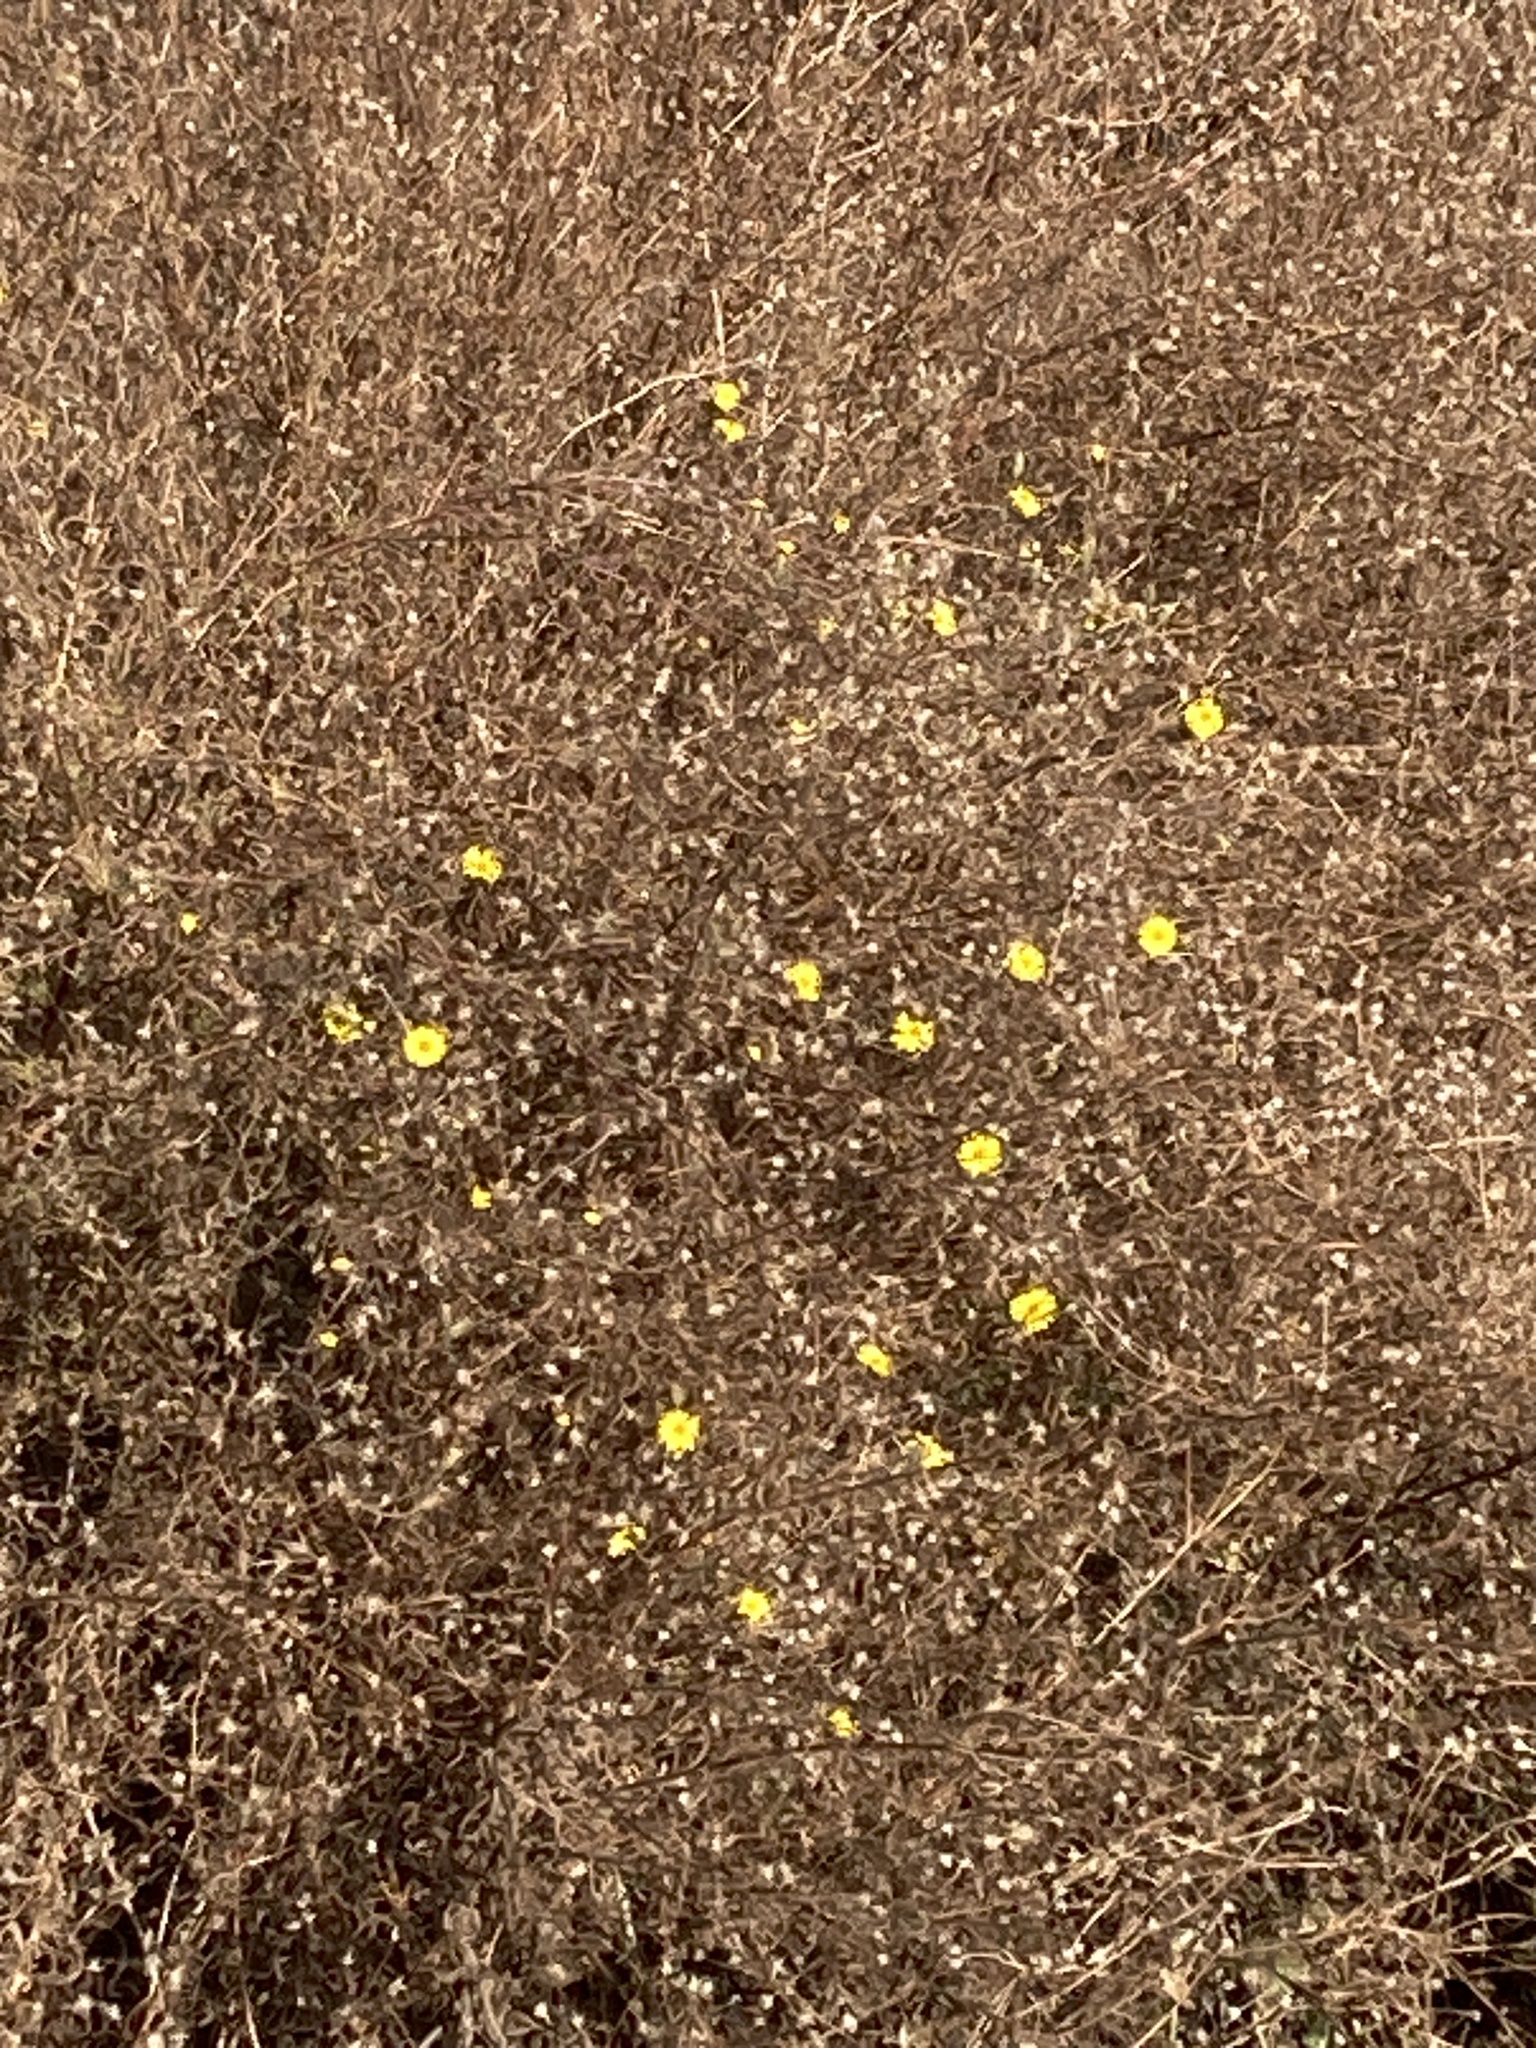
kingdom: Plantae
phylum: Tracheophyta
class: Magnoliopsida
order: Asterales
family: Asteraceae
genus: Madia
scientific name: Madia elegans
